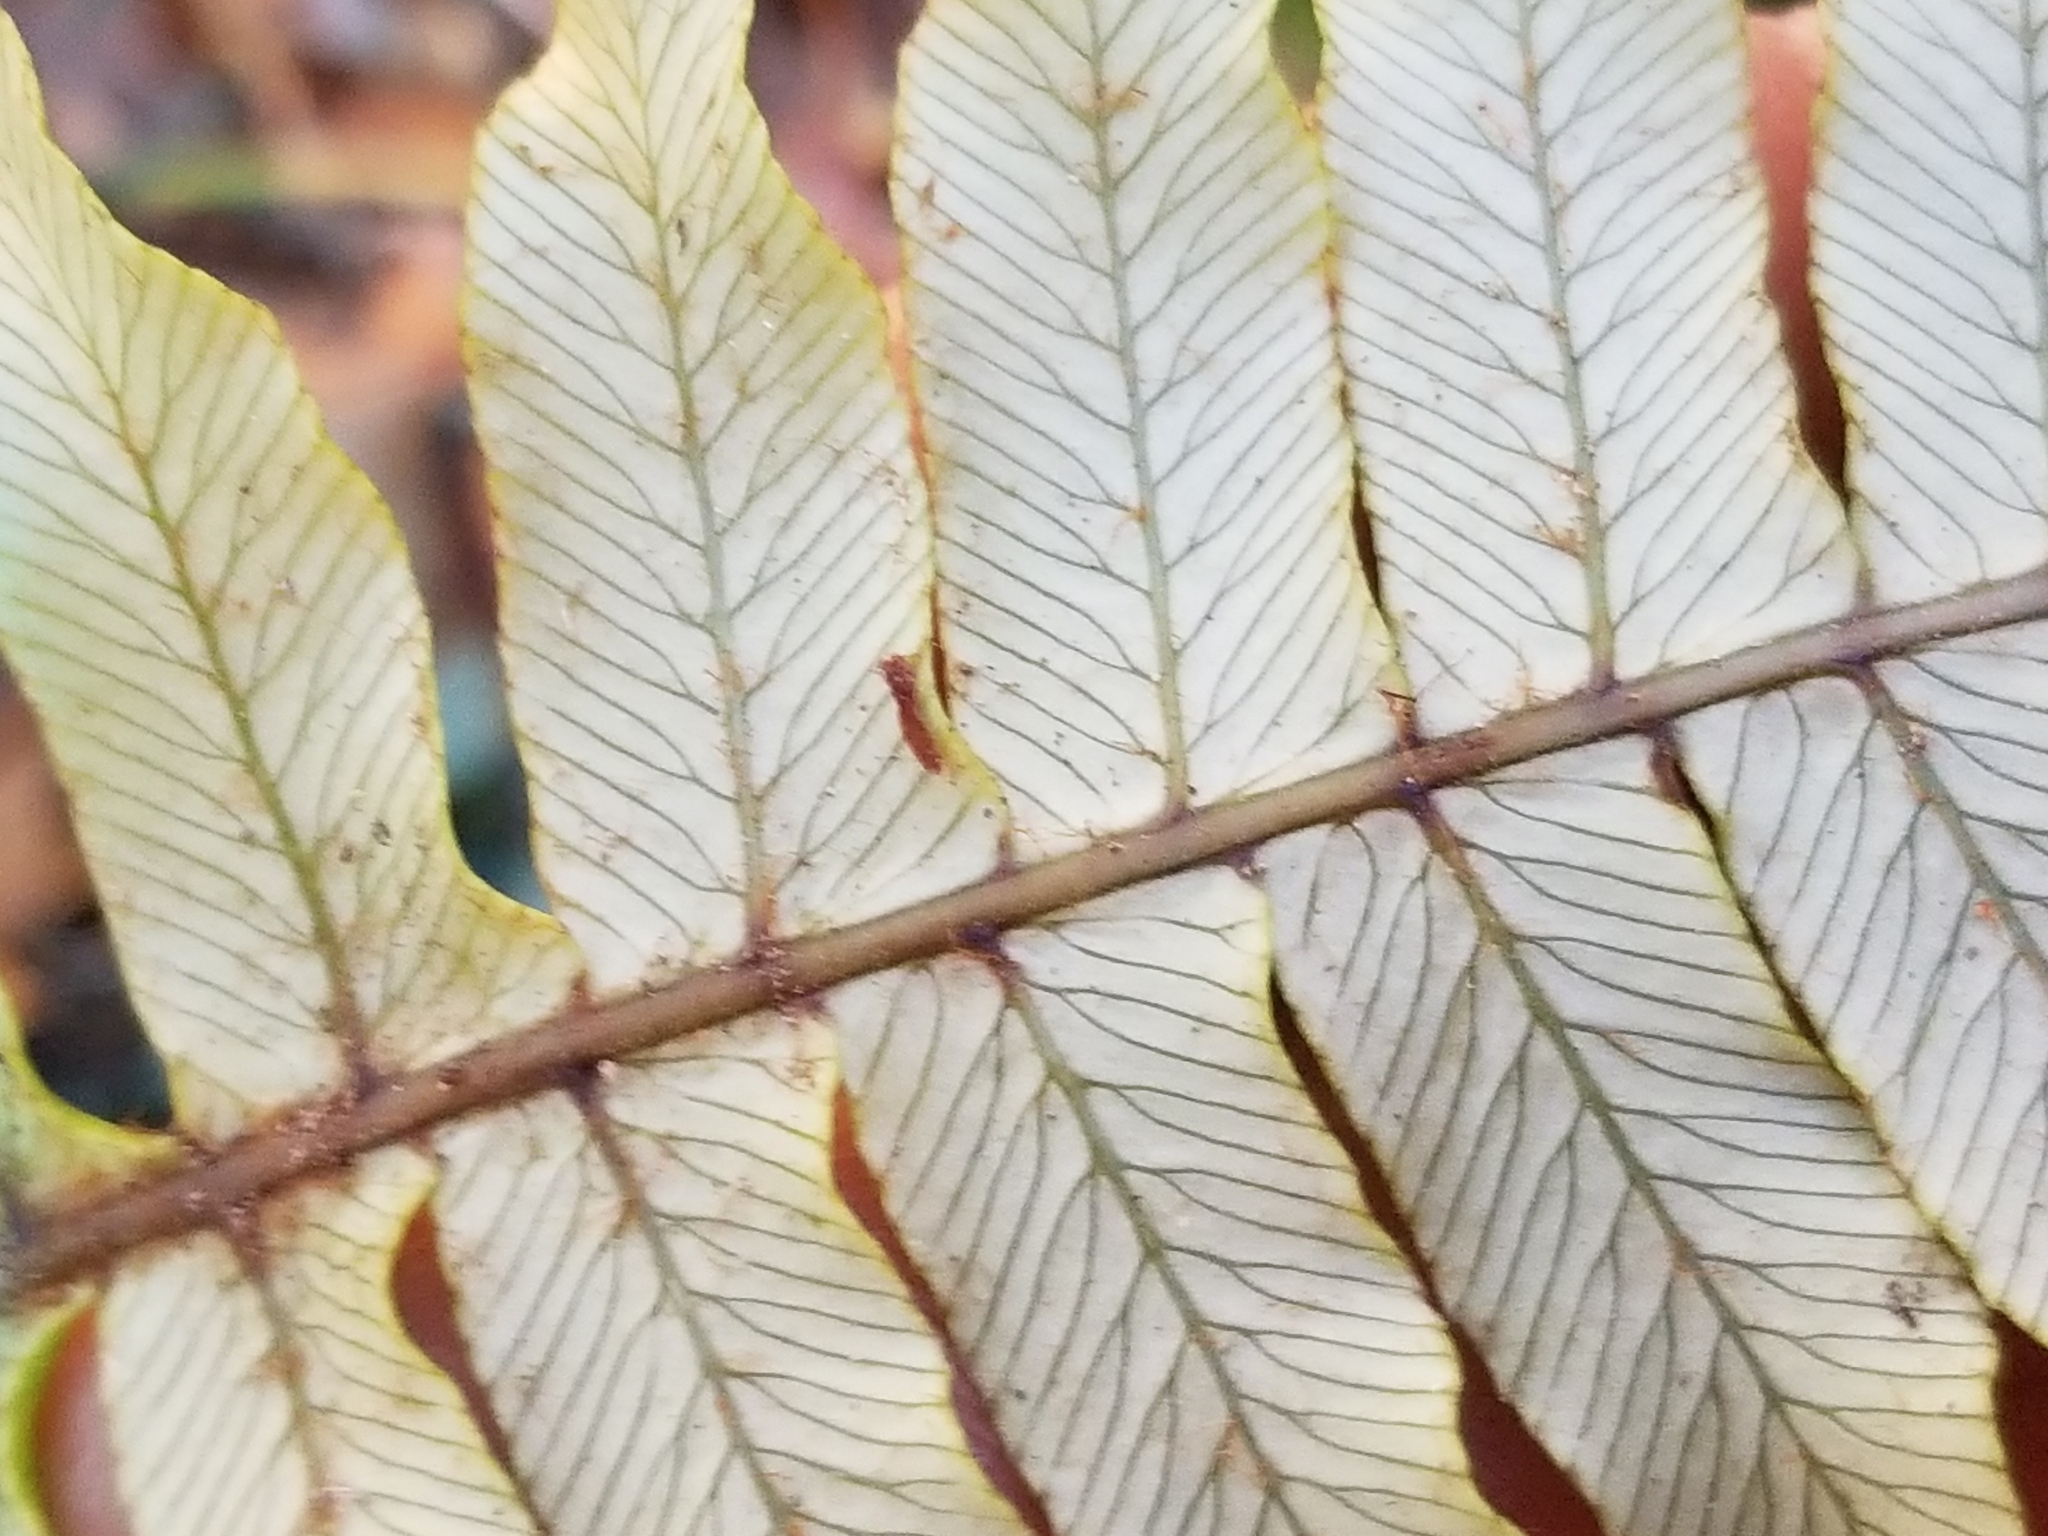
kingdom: Plantae
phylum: Tracheophyta
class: Polypodiopsida
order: Polypodiales
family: Blechnaceae
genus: Lomaria
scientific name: Lomaria discolor
